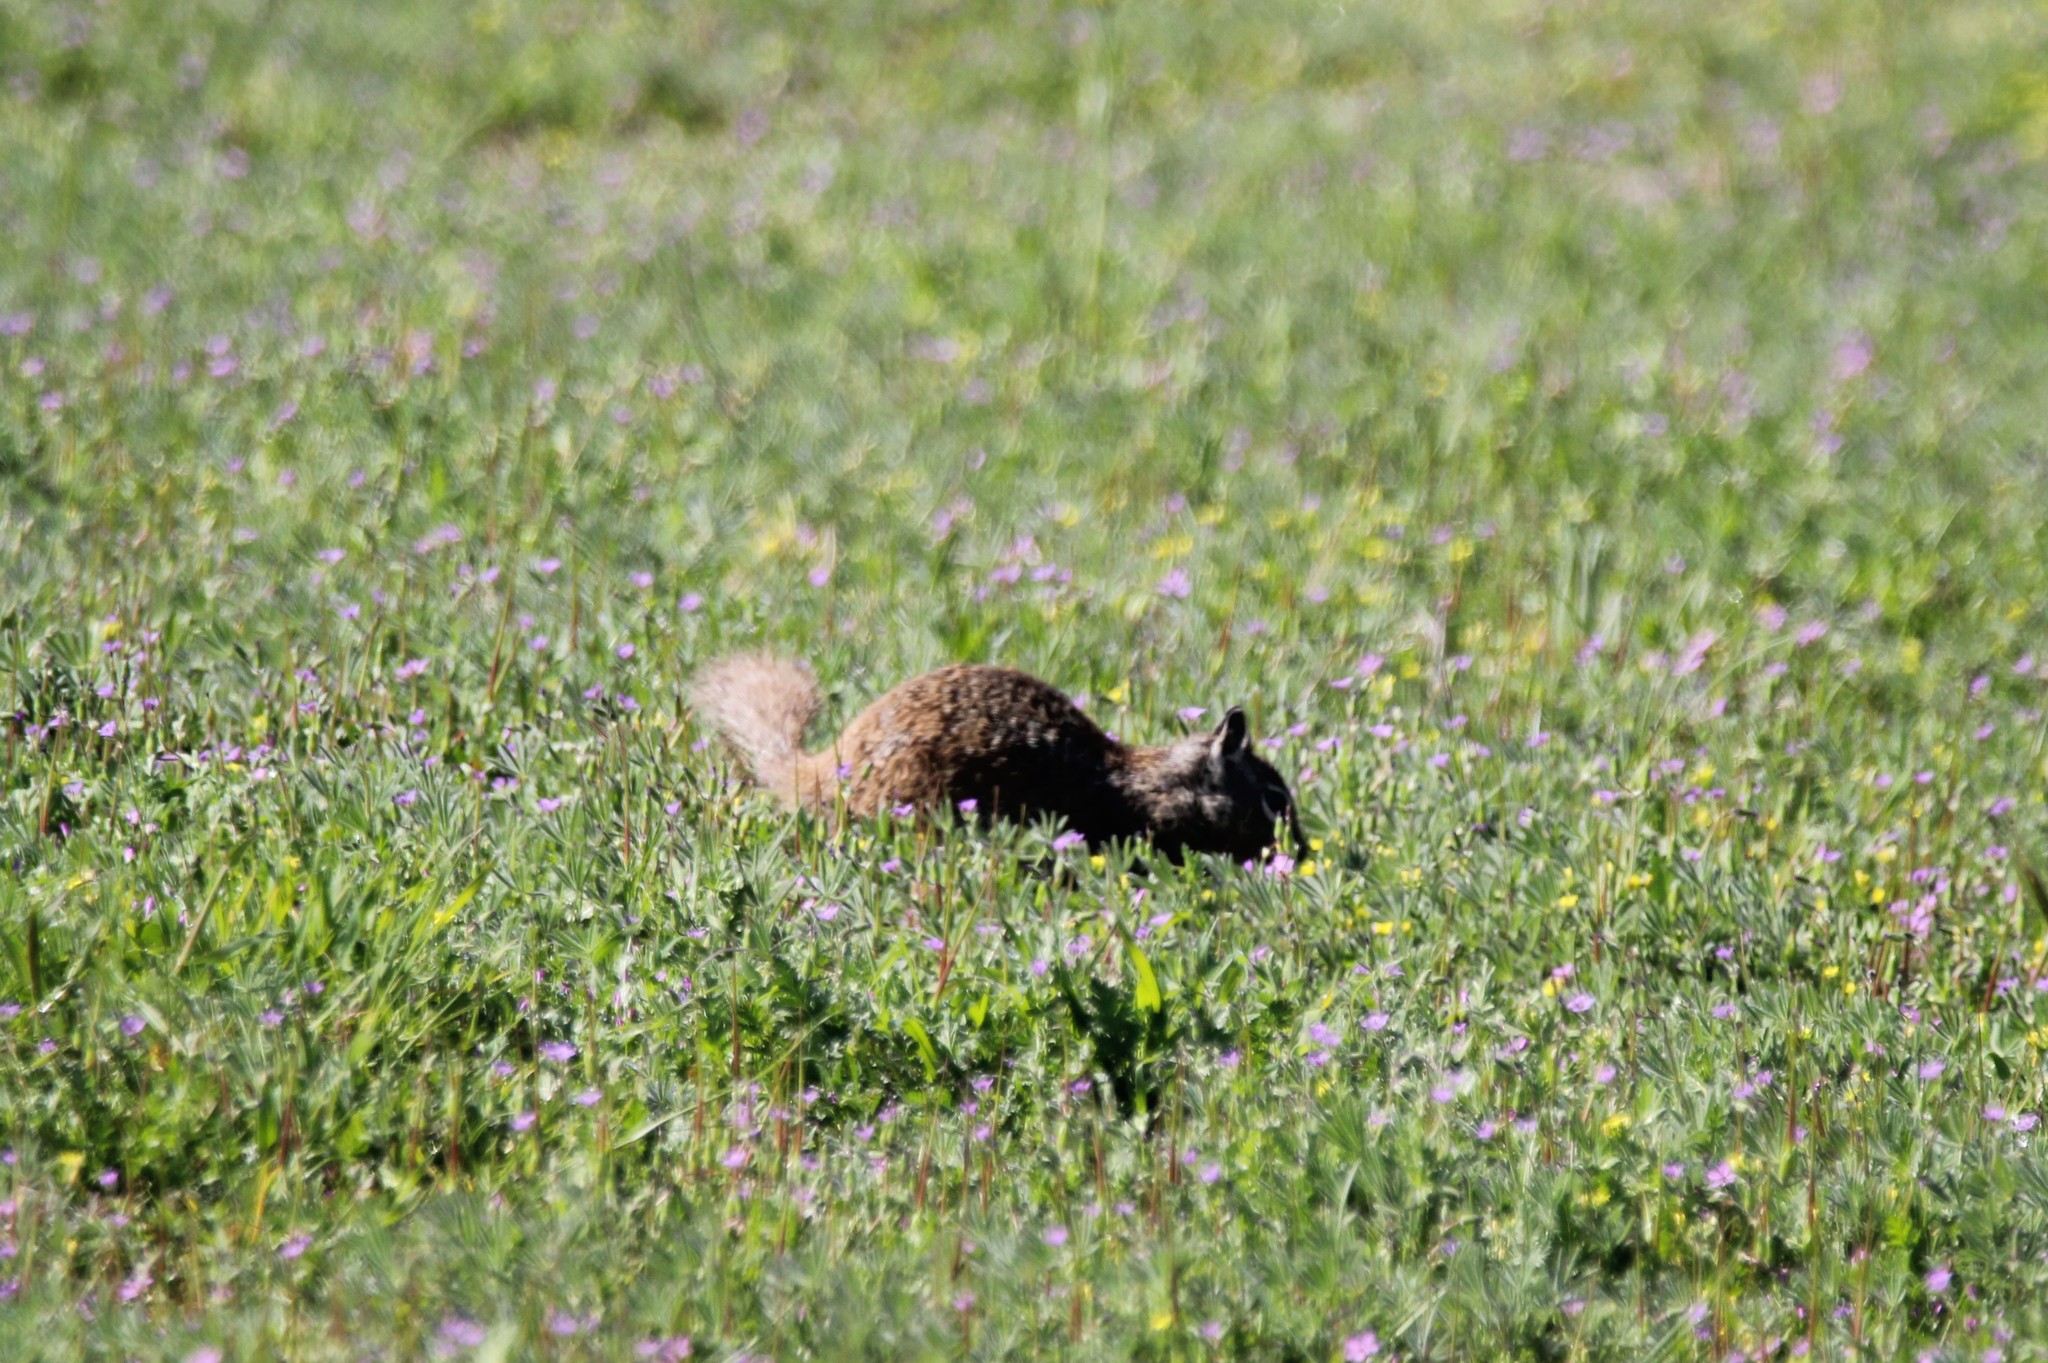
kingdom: Animalia
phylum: Chordata
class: Mammalia
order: Rodentia
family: Sciuridae
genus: Otospermophilus
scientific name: Otospermophilus beecheyi
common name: California ground squirrel
